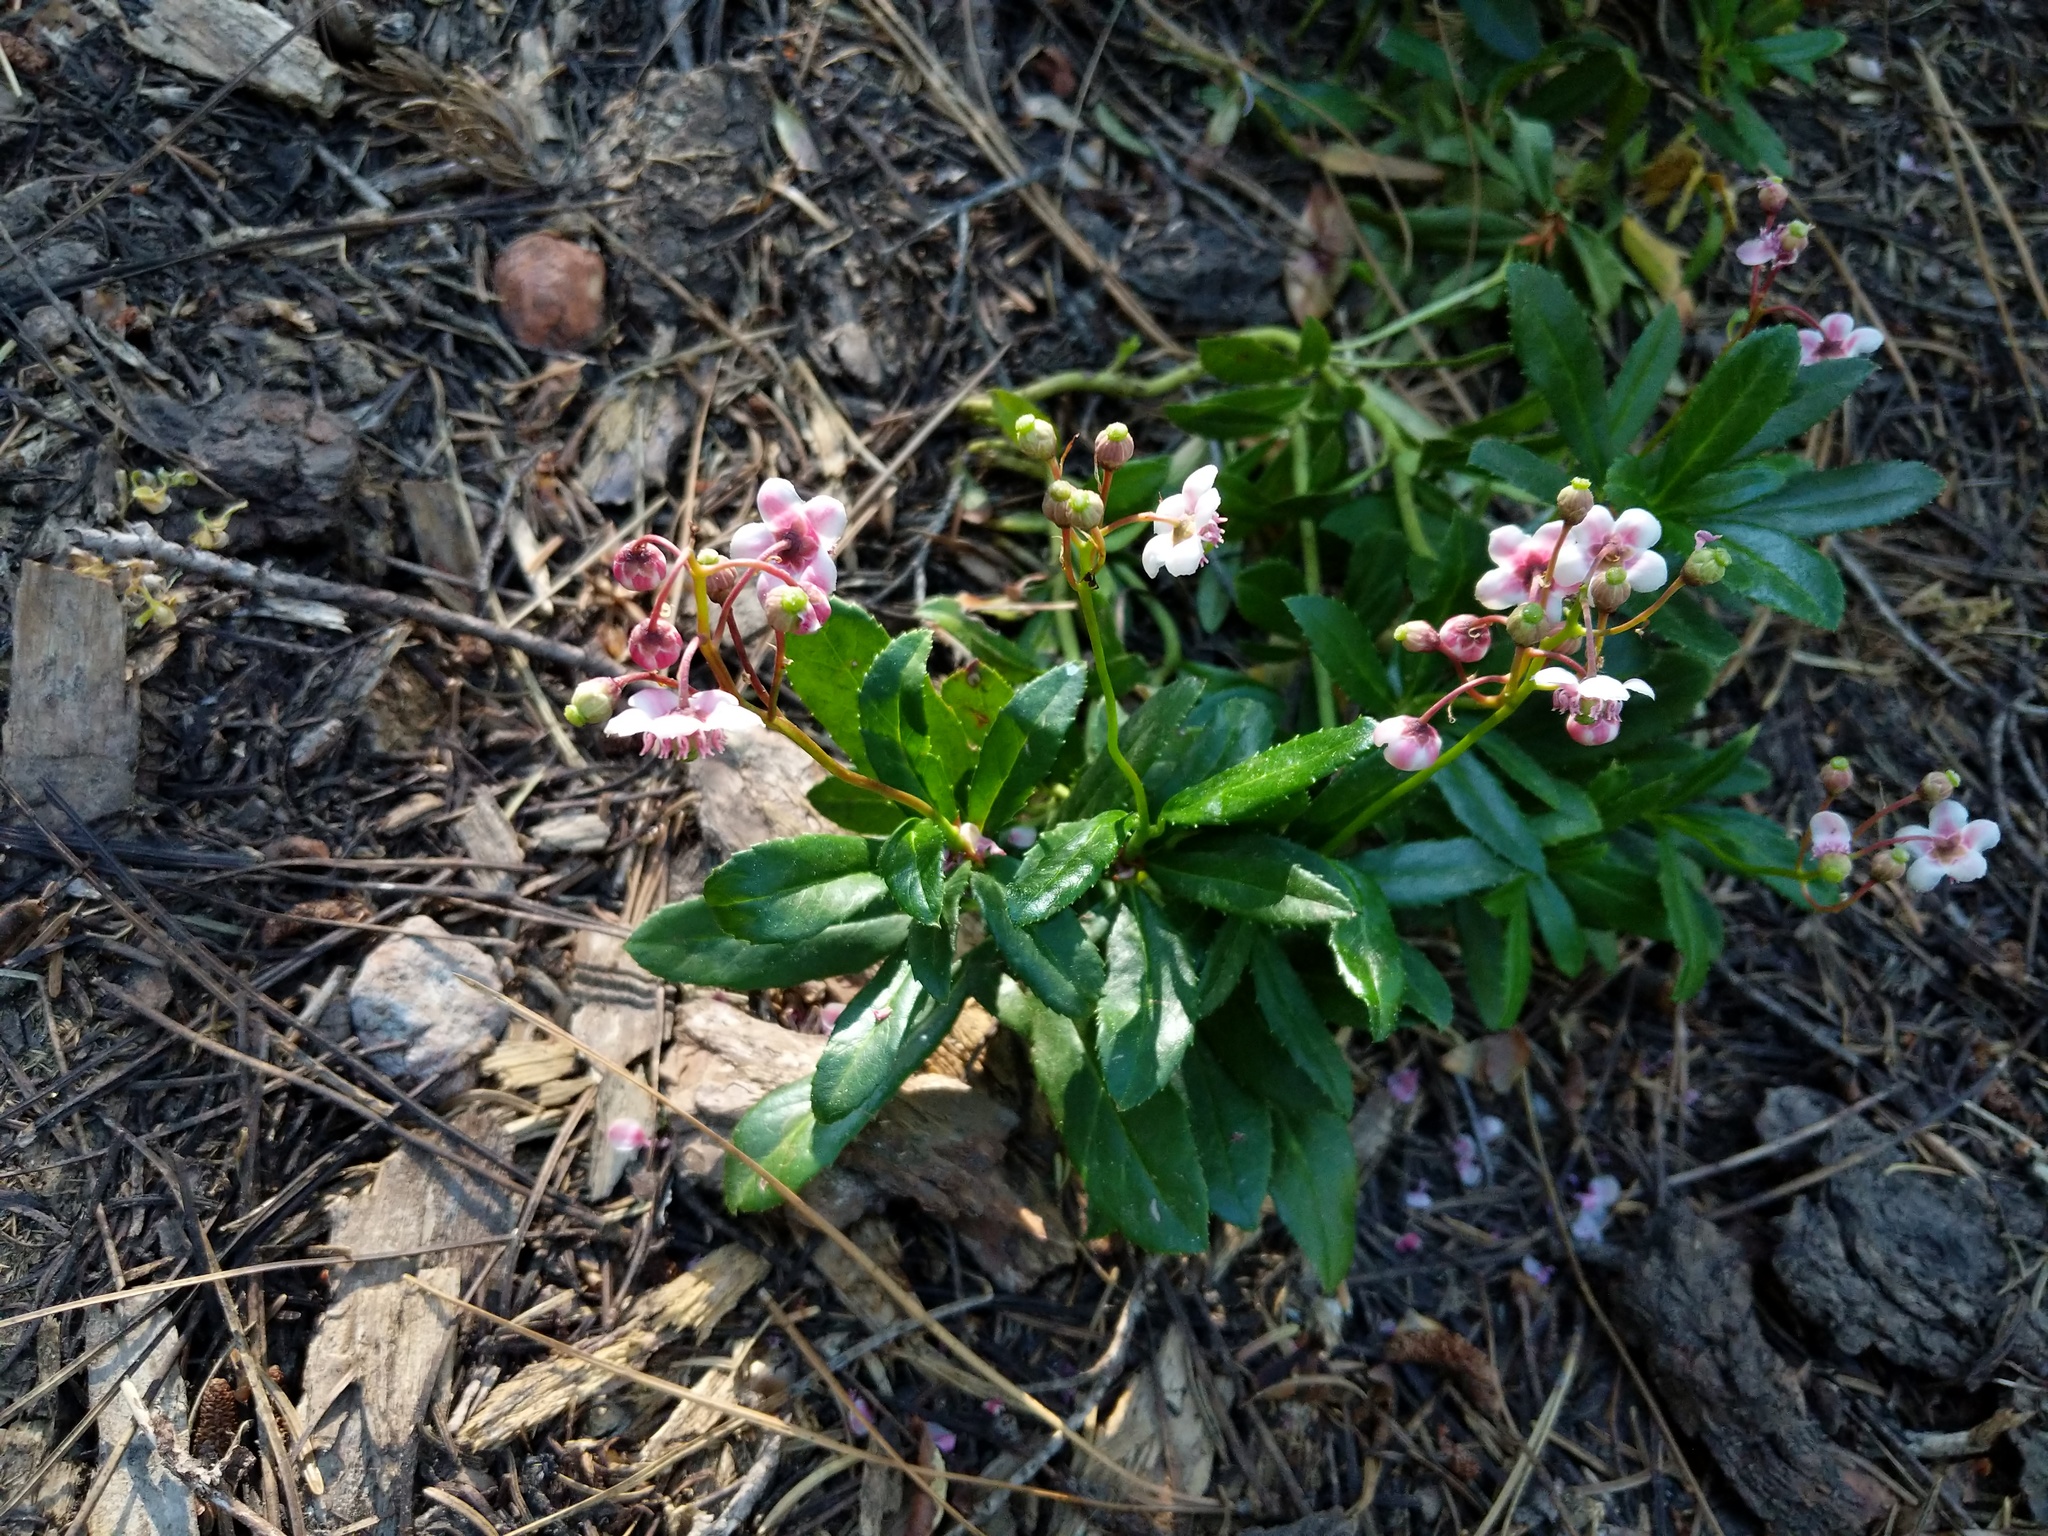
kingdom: Plantae
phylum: Tracheophyta
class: Magnoliopsida
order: Ericales
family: Ericaceae
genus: Chimaphila
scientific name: Chimaphila umbellata
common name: Pipsissewa
